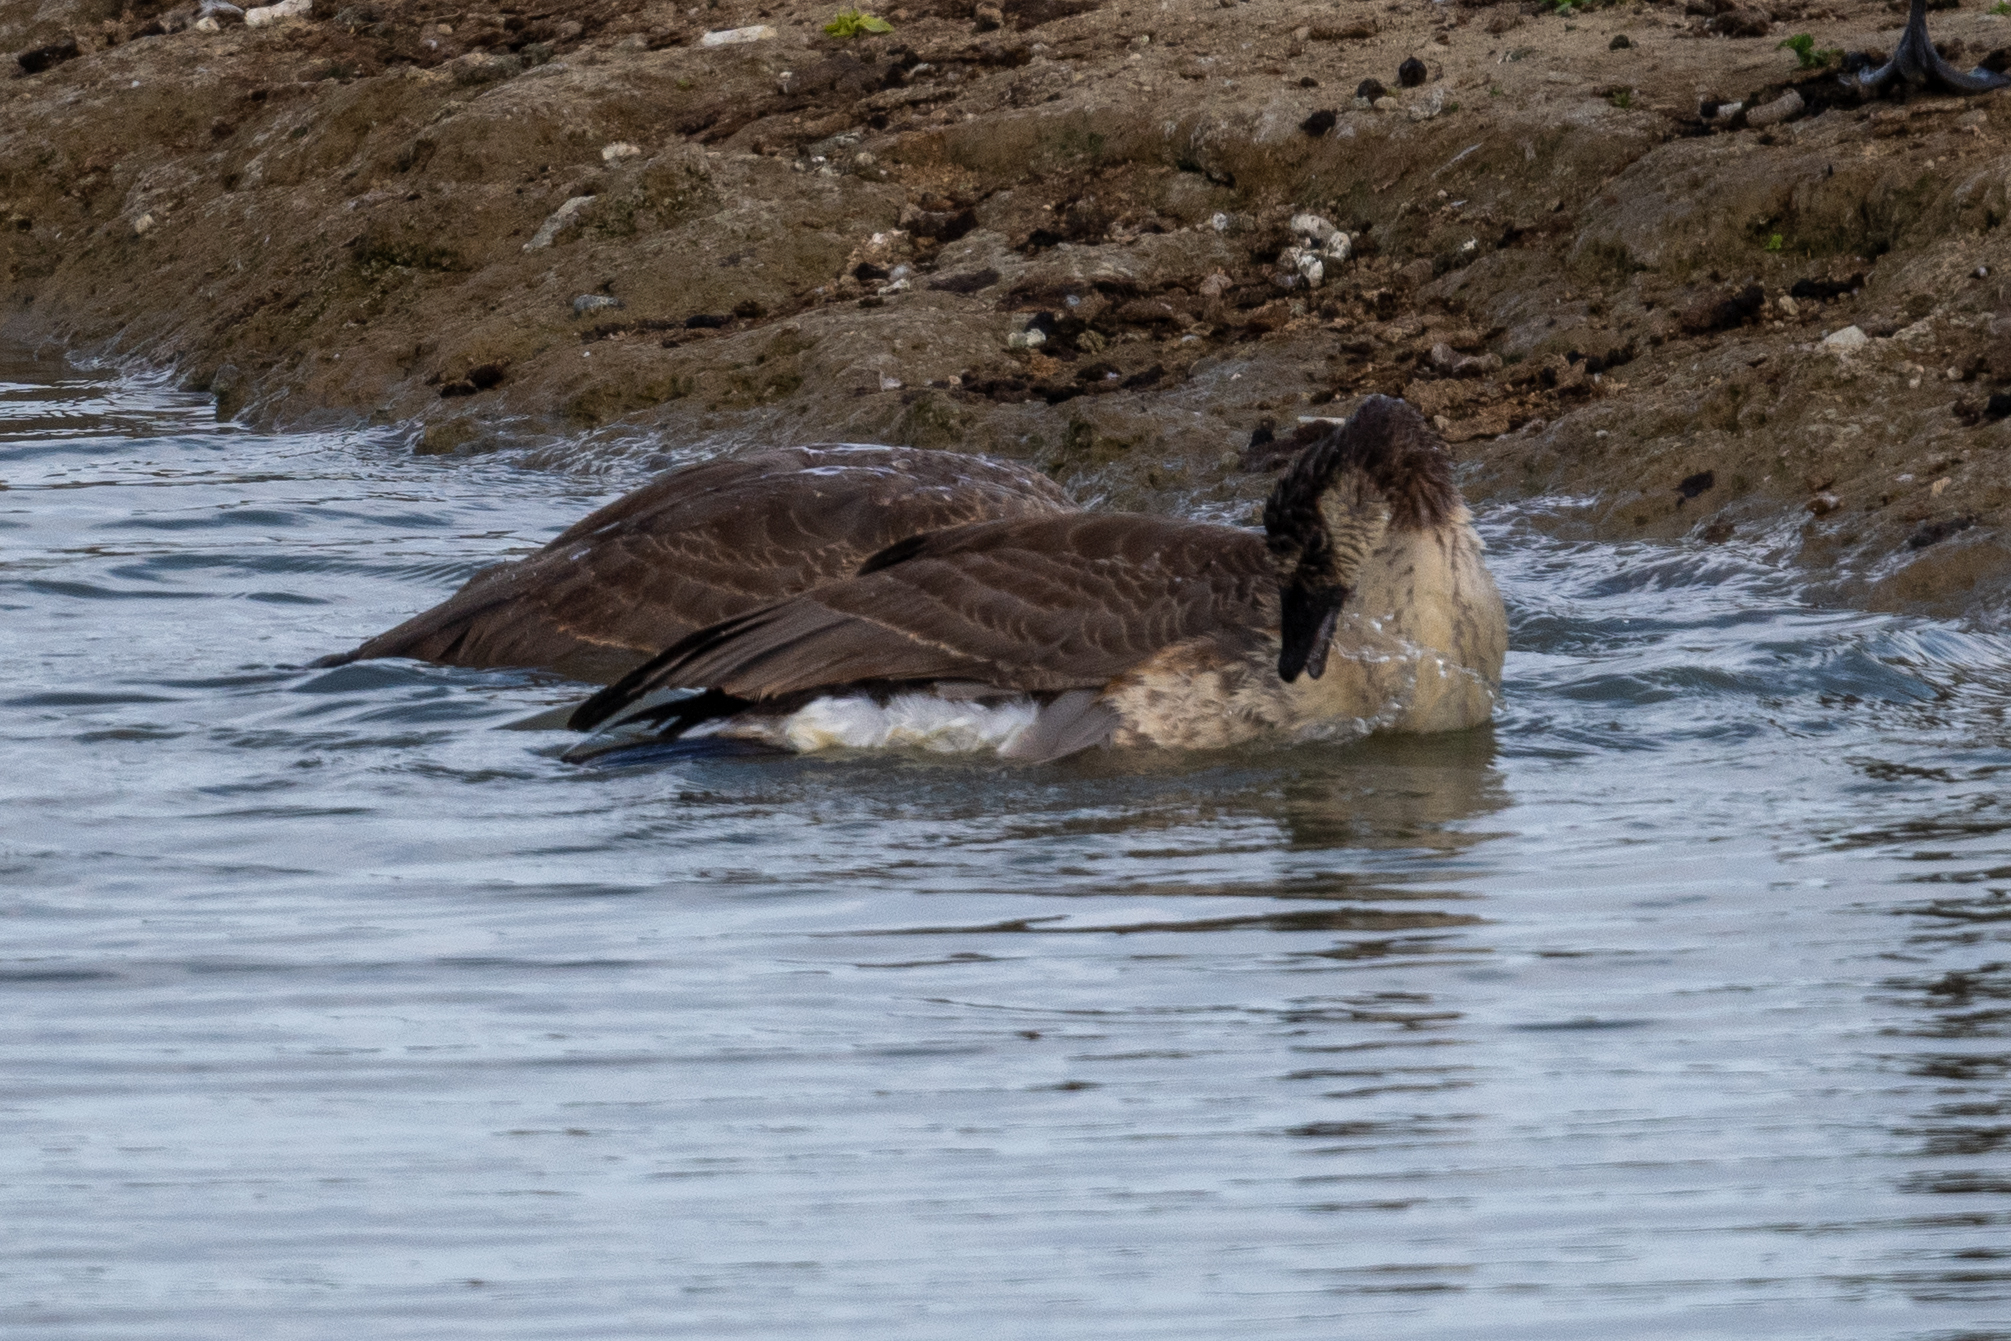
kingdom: Animalia
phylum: Chordata
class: Aves
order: Anseriformes
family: Anatidae
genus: Branta
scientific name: Branta canadensis
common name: Canada goose
